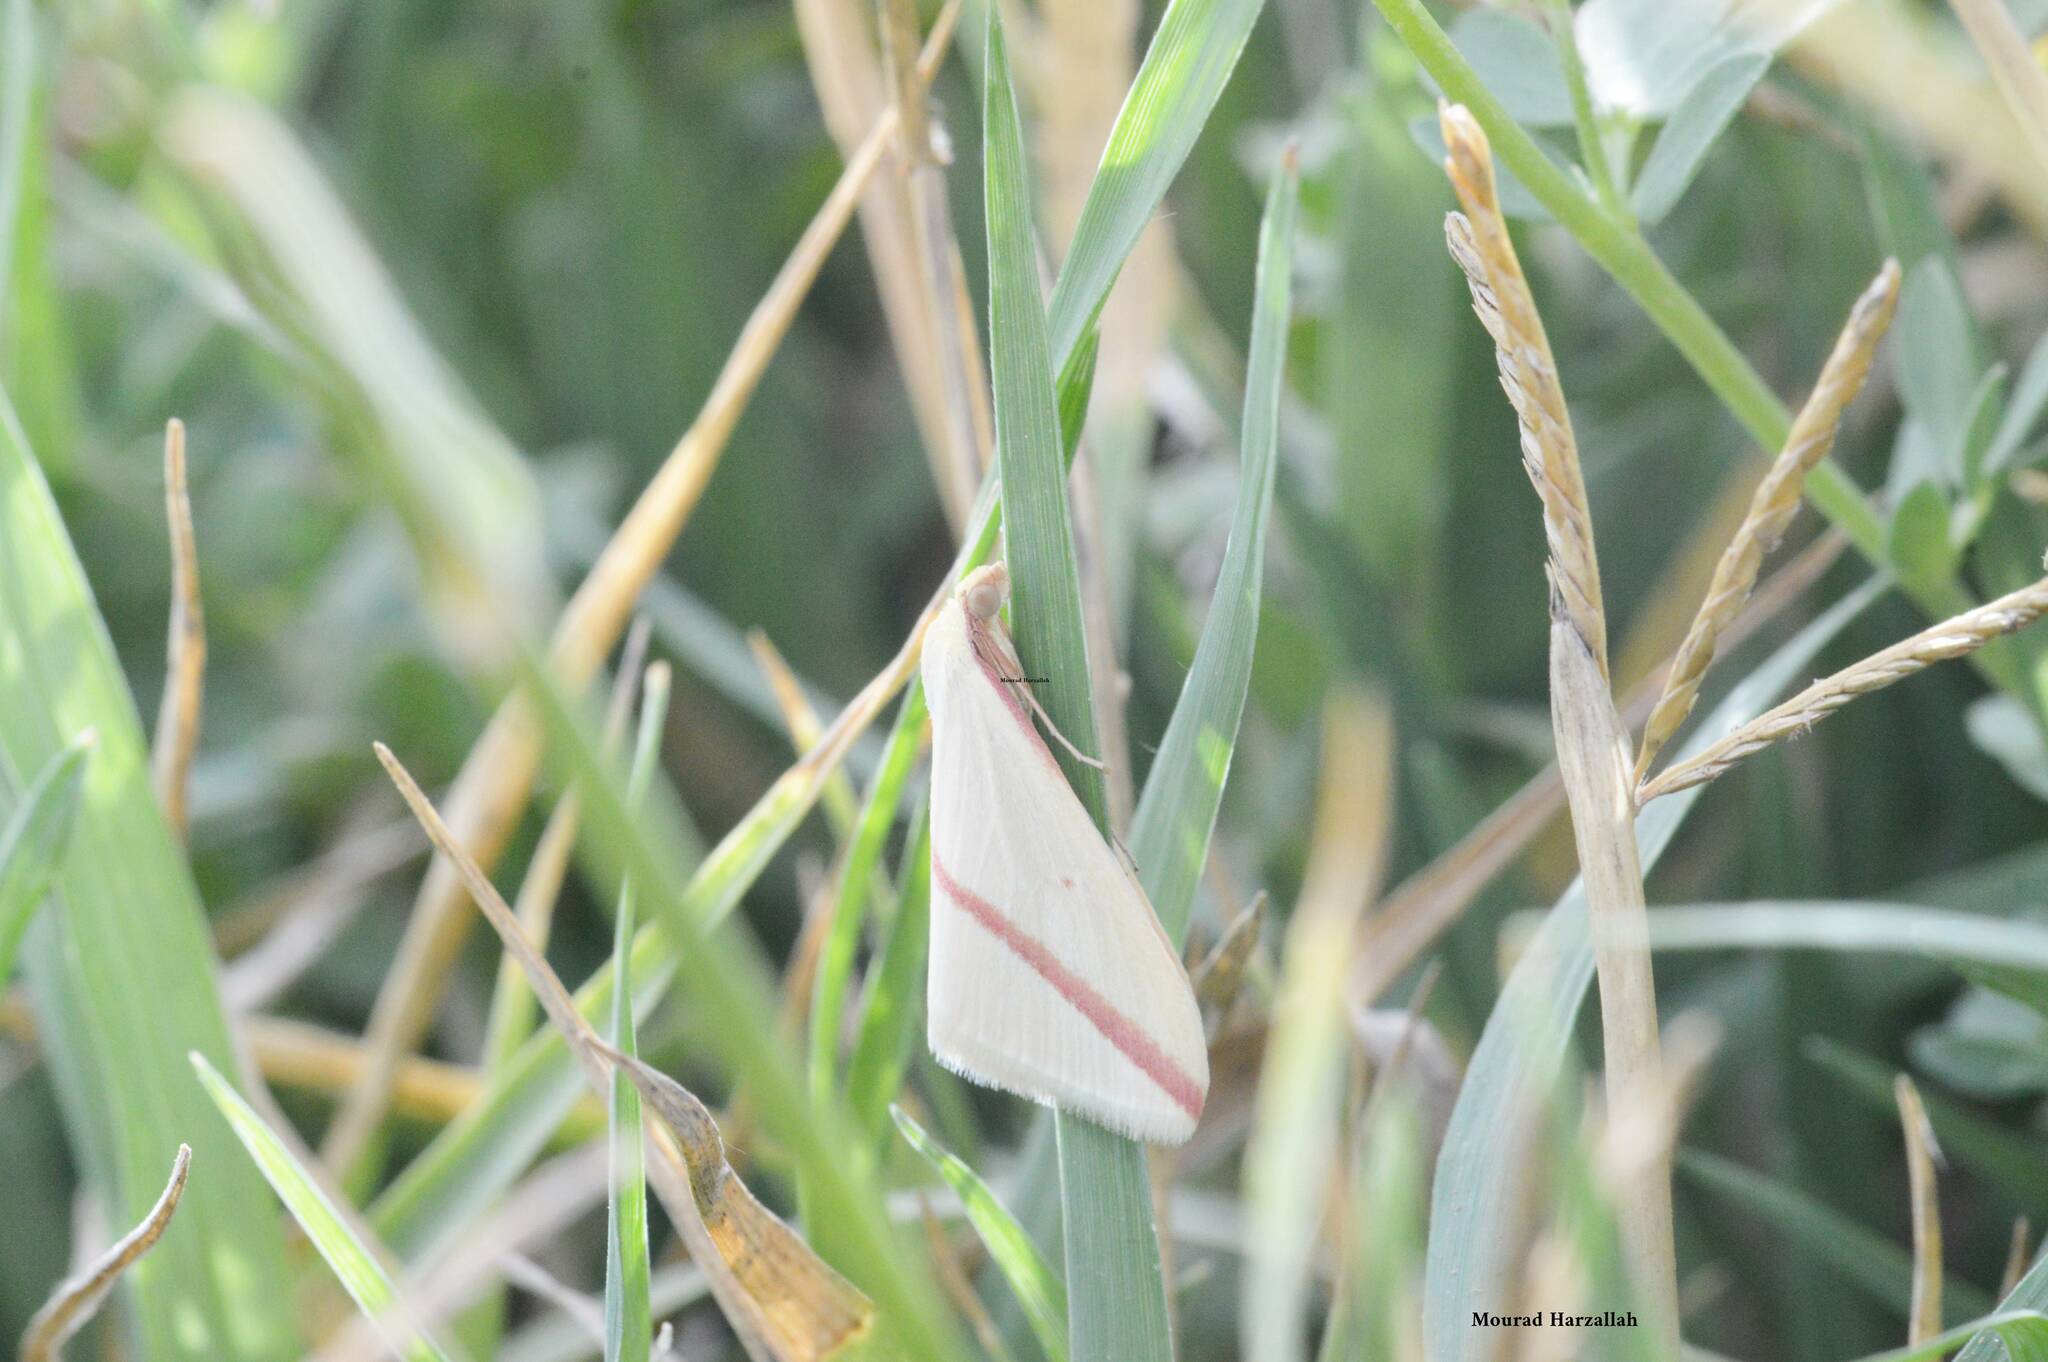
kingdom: Animalia
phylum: Arthropoda
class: Insecta
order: Lepidoptera
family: Geometridae
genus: Rhodometra
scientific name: Rhodometra sacraria
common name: Vestal
